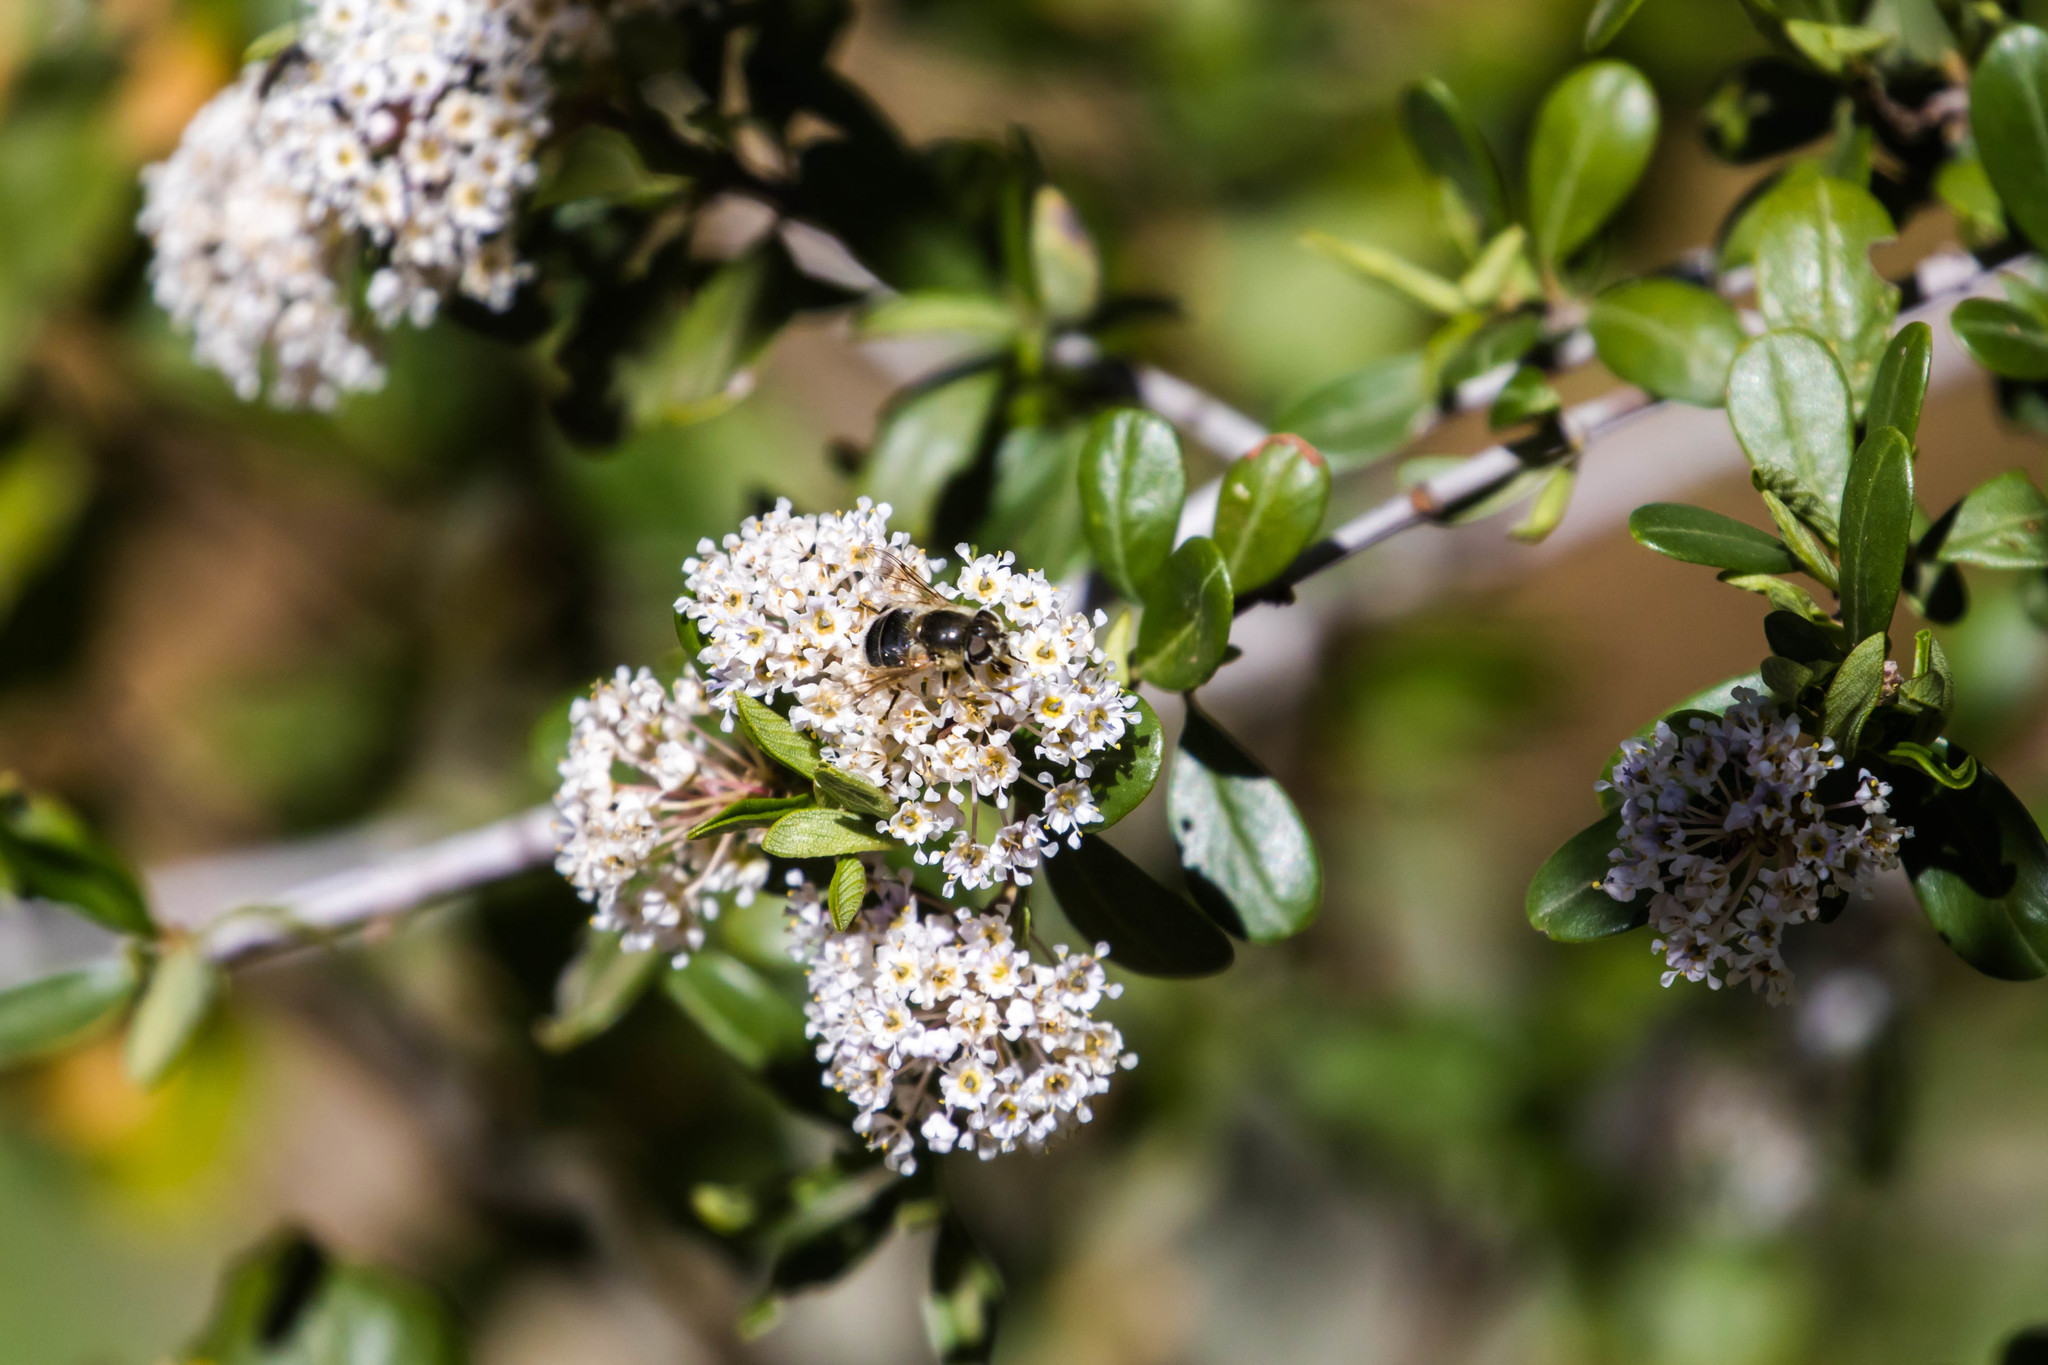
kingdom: Animalia
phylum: Arthropoda
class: Insecta
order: Diptera
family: Syrphidae
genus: Eristalis
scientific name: Eristalis hirta
